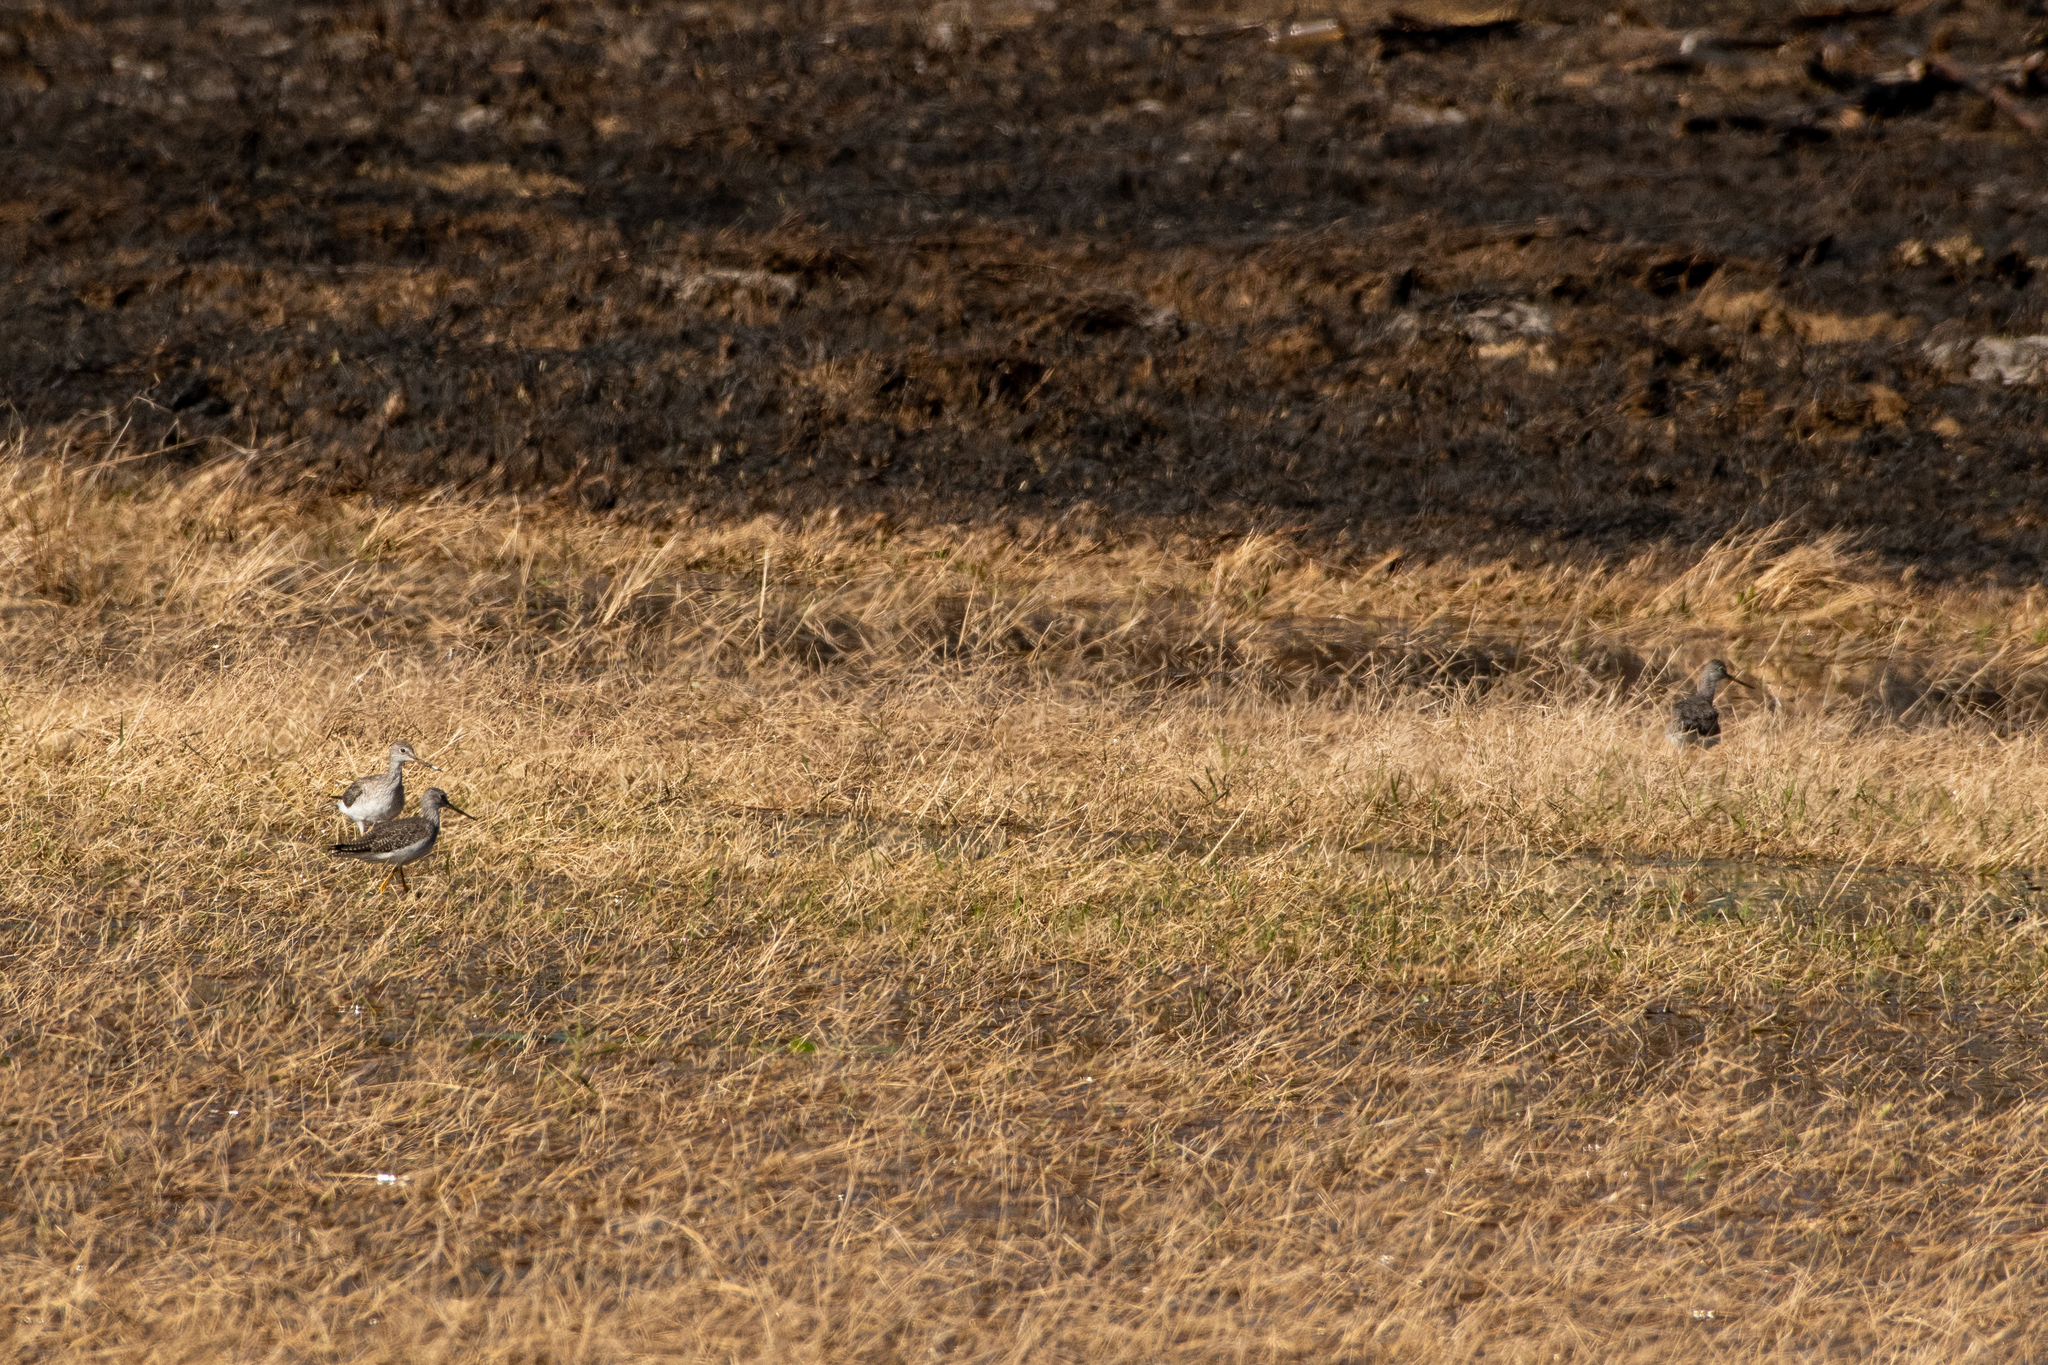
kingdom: Animalia
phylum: Chordata
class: Aves
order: Charadriiformes
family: Scolopacidae
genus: Tringa
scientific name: Tringa melanoleuca
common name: Greater yellowlegs
